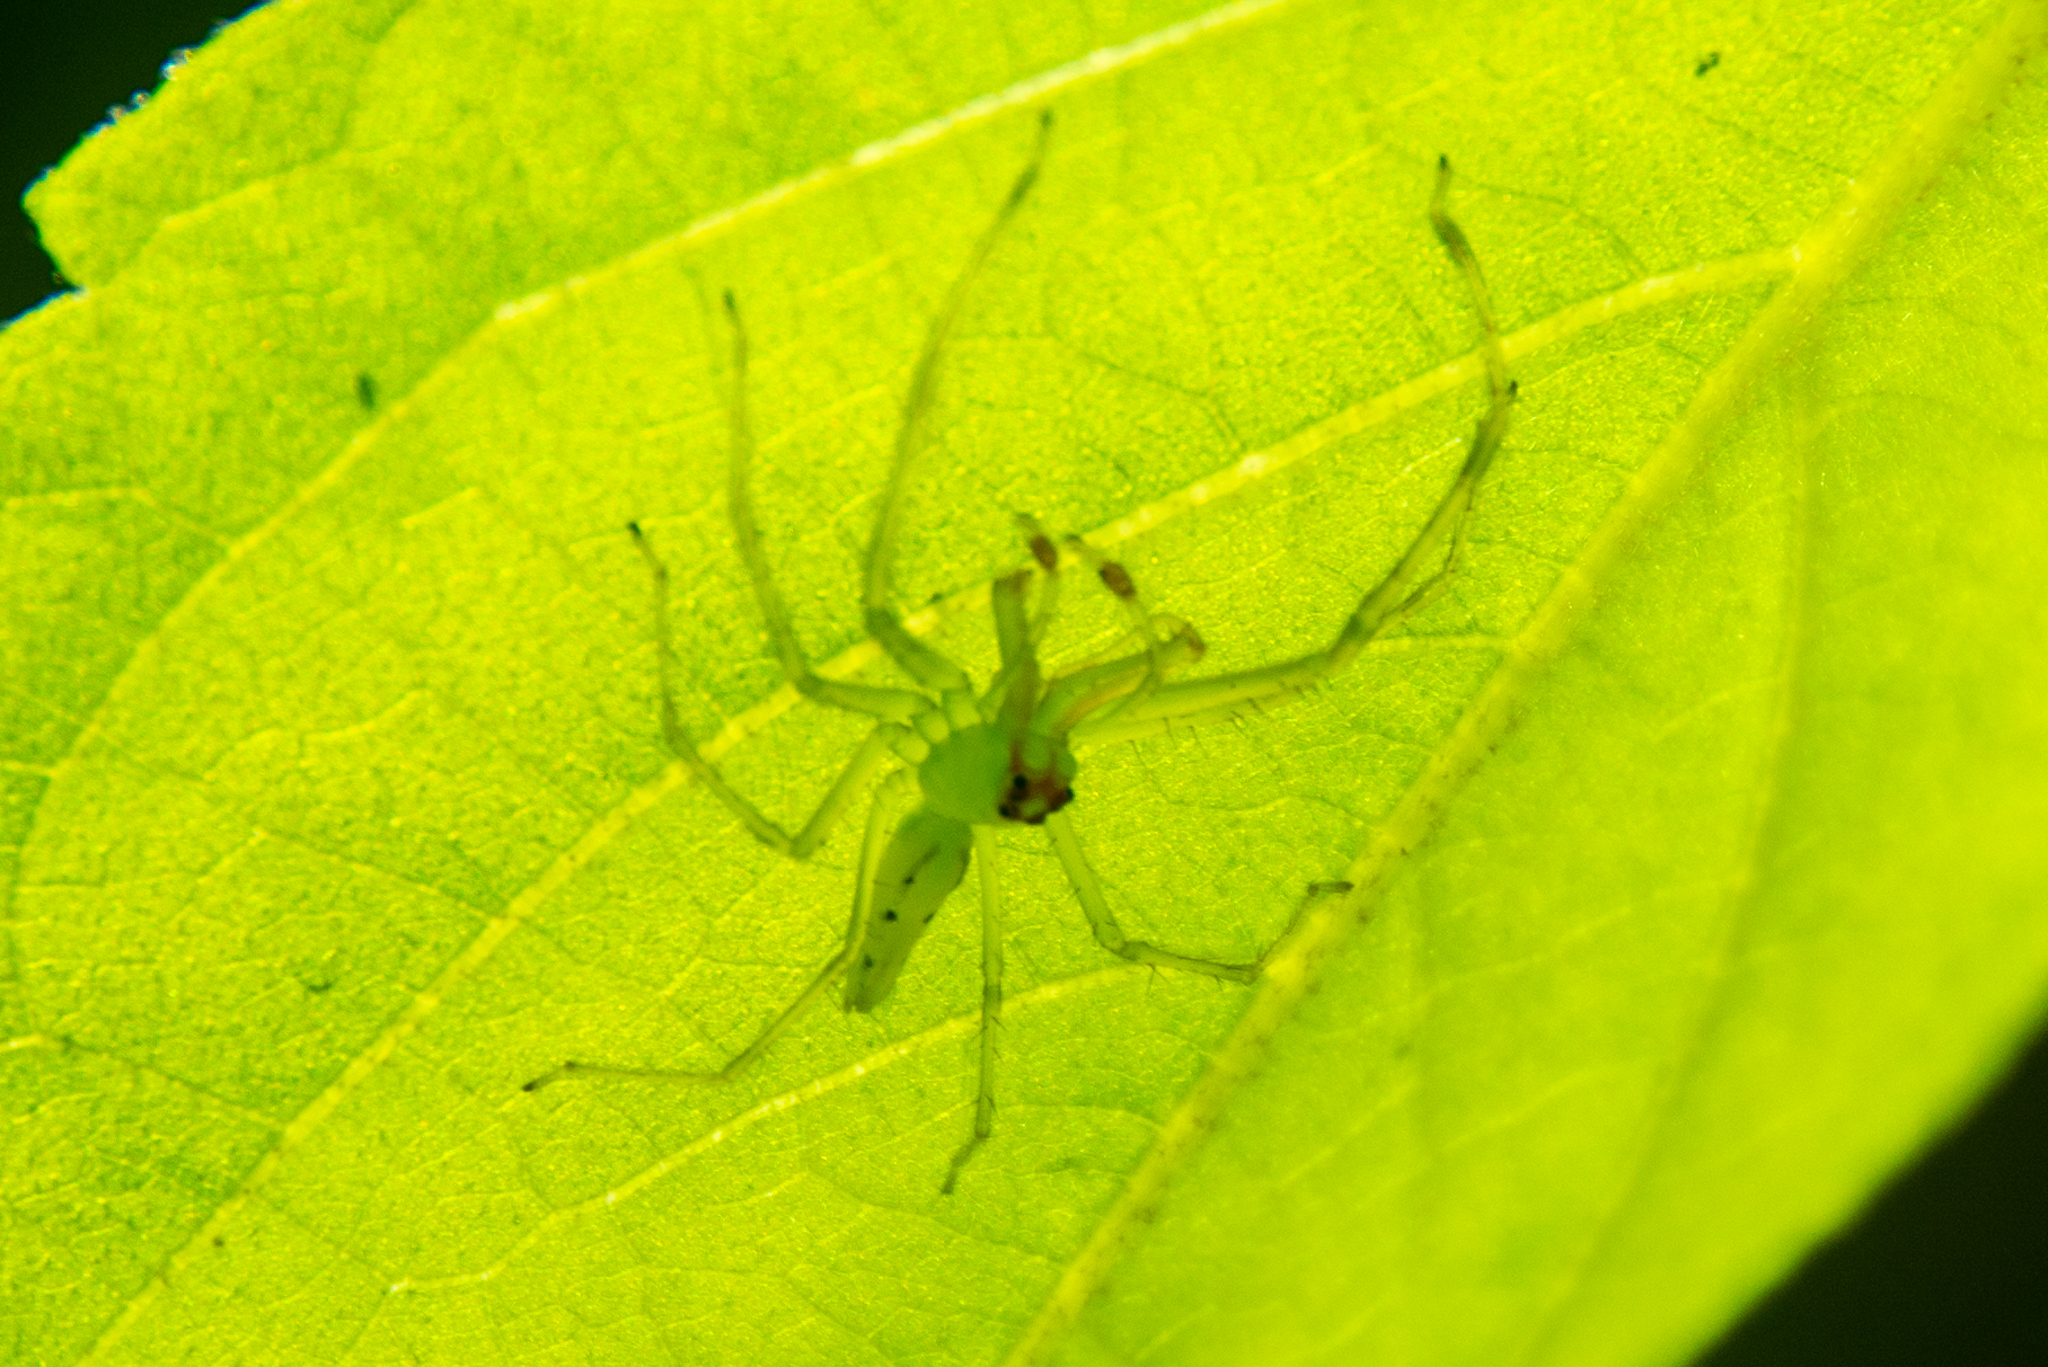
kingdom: Animalia
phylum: Arthropoda
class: Arachnida
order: Araneae
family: Salticidae
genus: Lyssomanes
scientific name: Lyssomanes viridis
